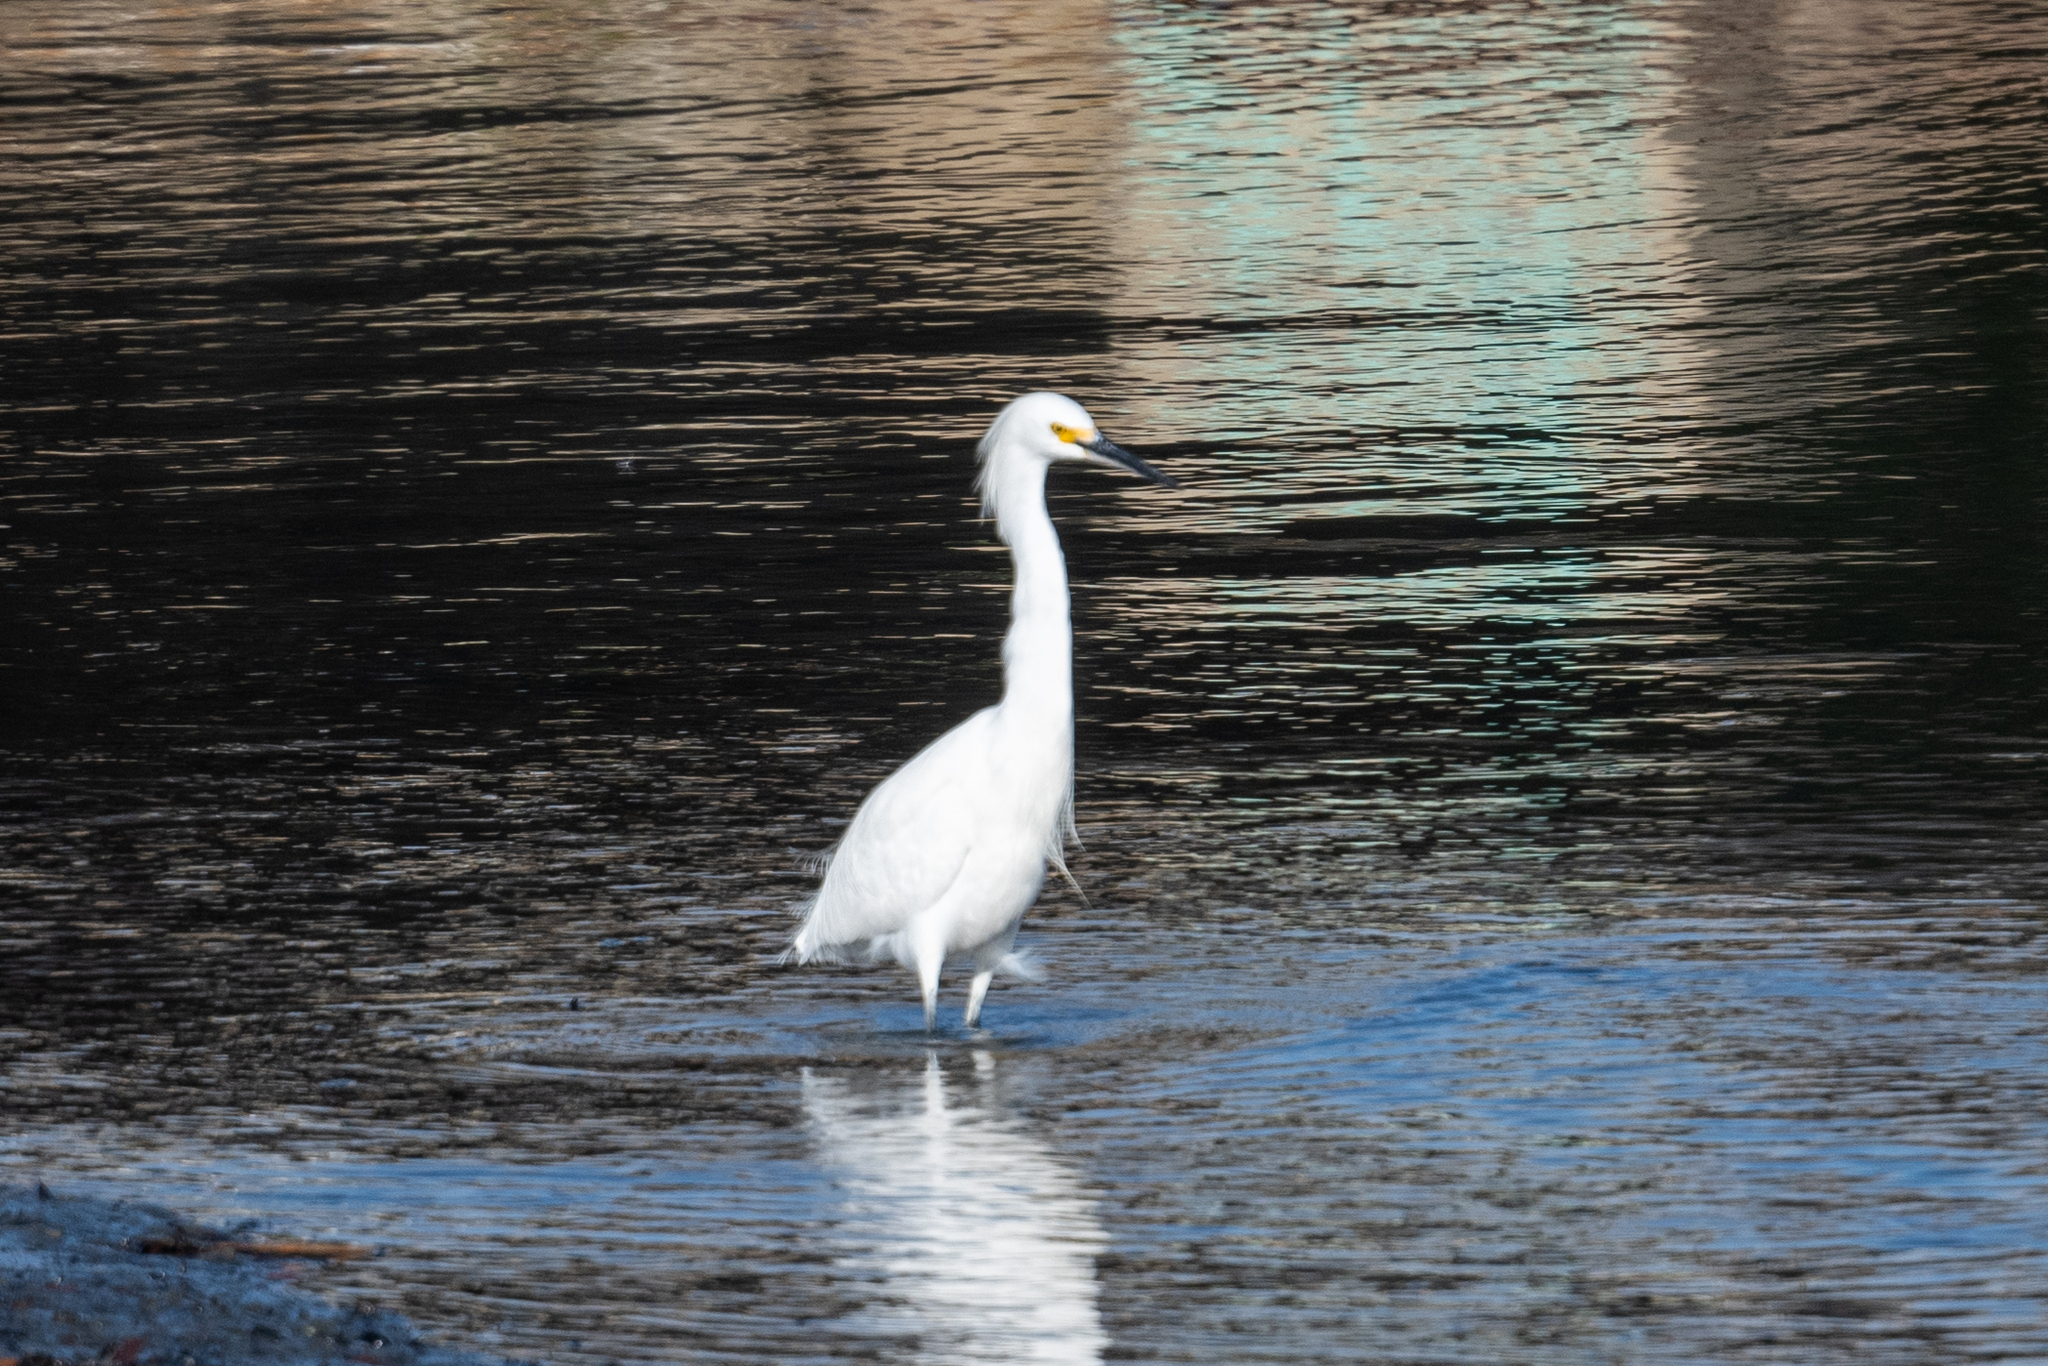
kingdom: Animalia
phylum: Chordata
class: Aves
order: Pelecaniformes
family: Ardeidae
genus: Egretta
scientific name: Egretta thula
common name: Snowy egret
